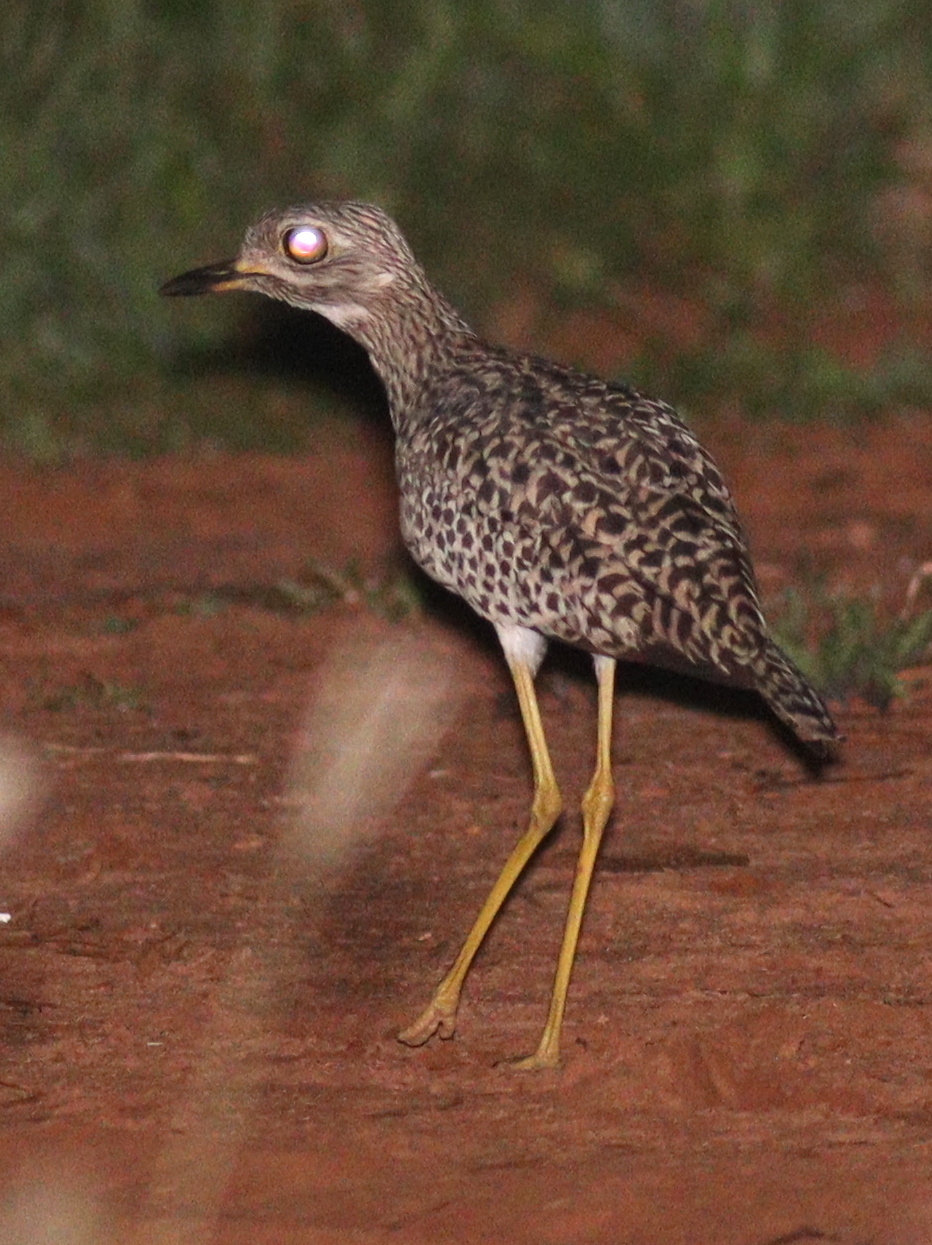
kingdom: Animalia
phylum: Chordata
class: Aves
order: Charadriiformes
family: Burhinidae
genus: Burhinus
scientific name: Burhinus capensis
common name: Spotted thick-knee
